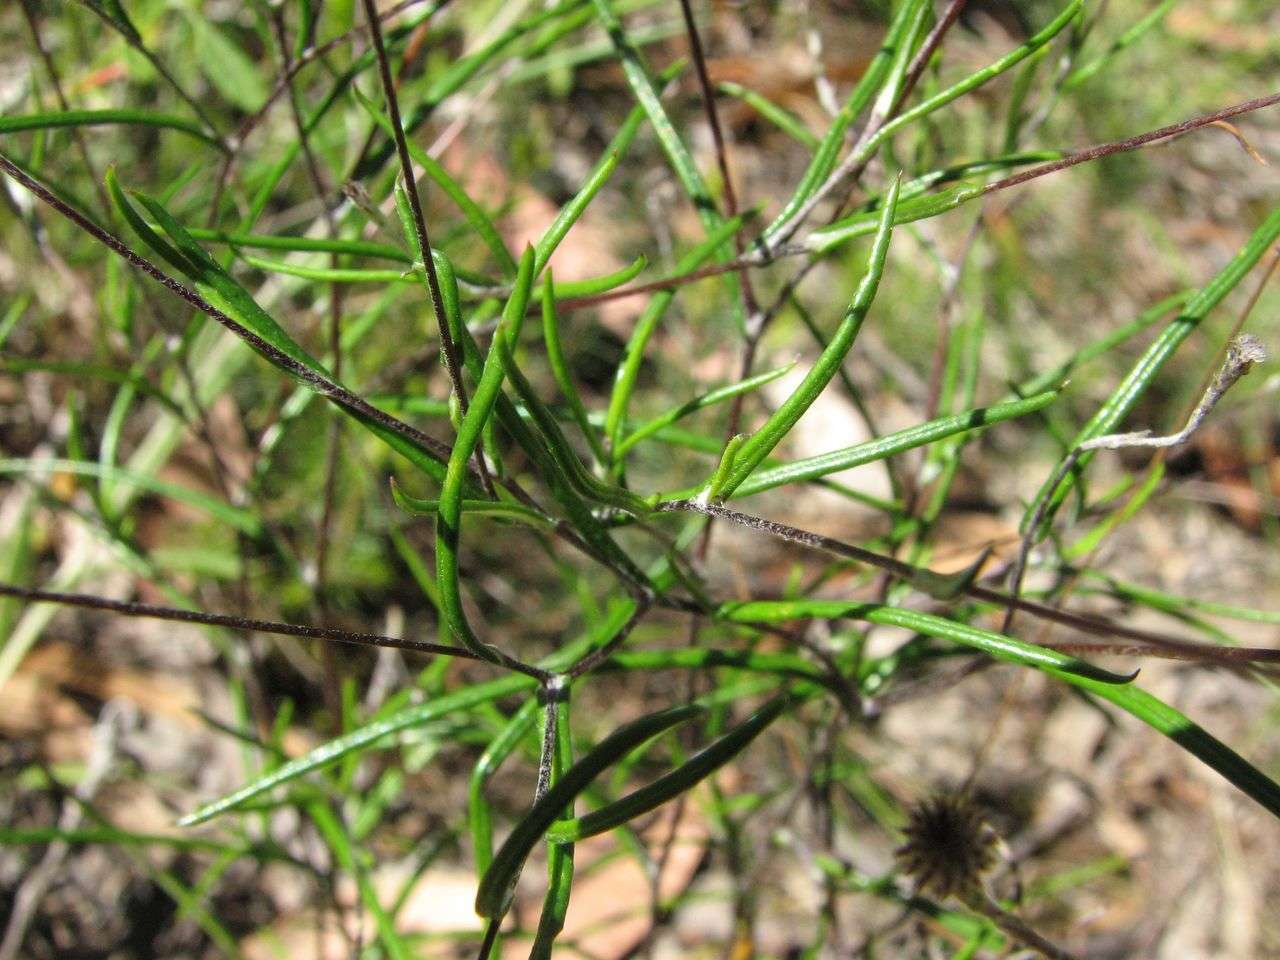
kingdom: Plantae
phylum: Tracheophyta
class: Magnoliopsida
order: Asterales
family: Asteraceae
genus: Leptorhynchos
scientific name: Leptorhynchos tenuifolius
